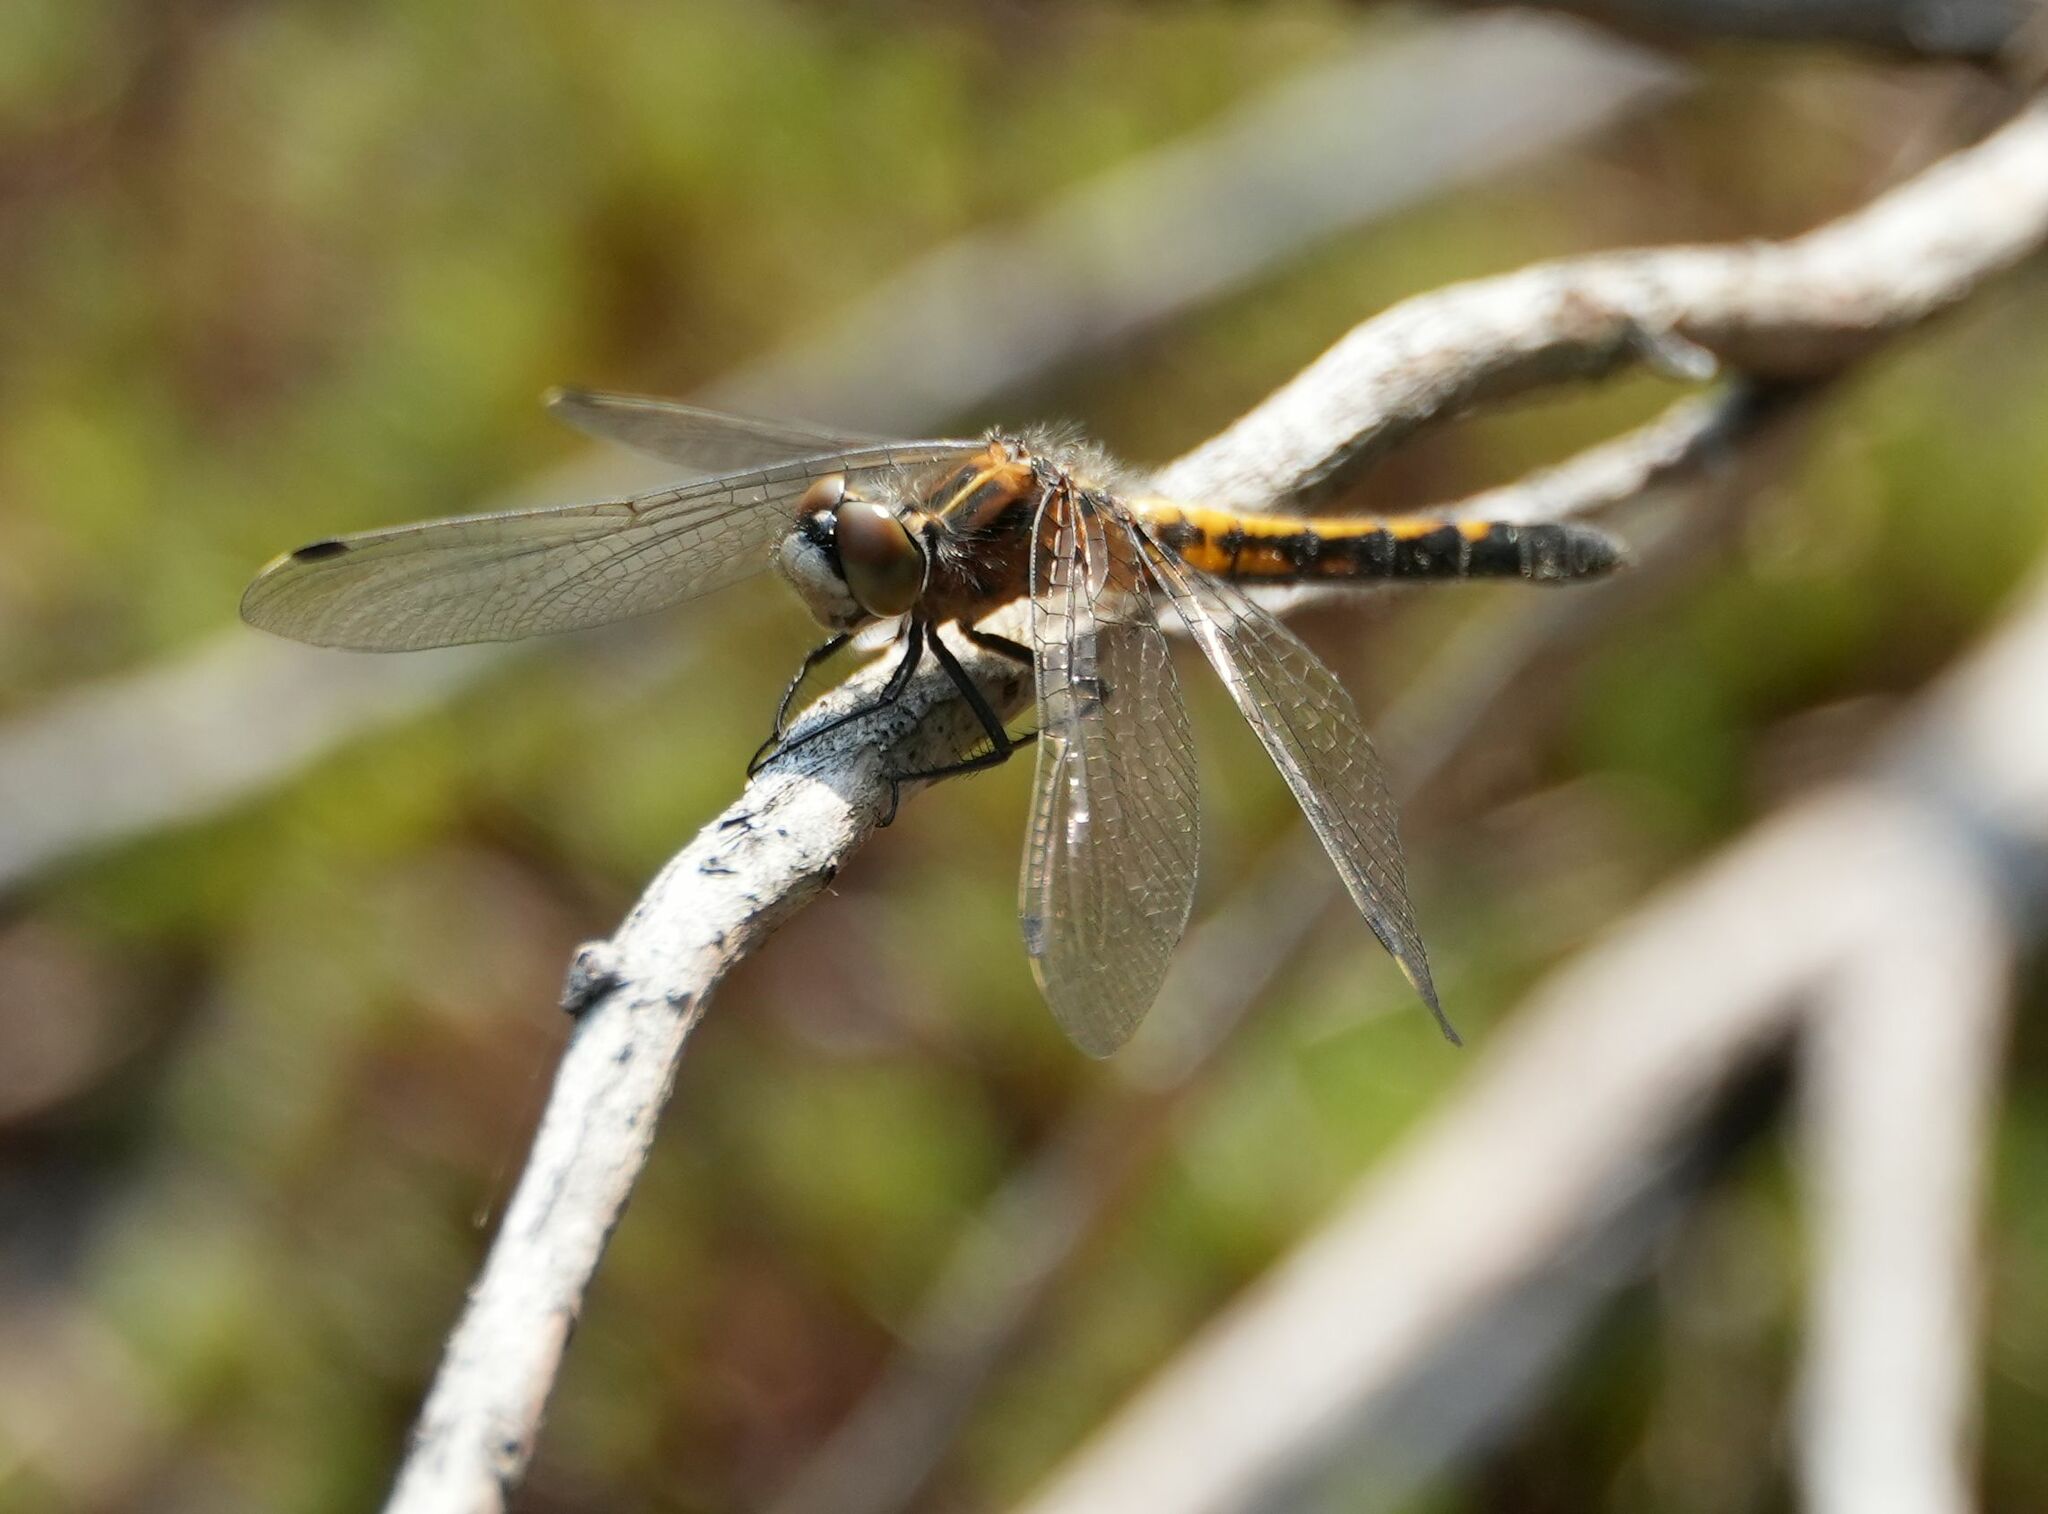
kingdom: Animalia
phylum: Arthropoda
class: Insecta
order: Odonata
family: Libellulidae
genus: Leucorrhinia
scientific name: Leucorrhinia intacta
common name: Dot-tailed whiteface
